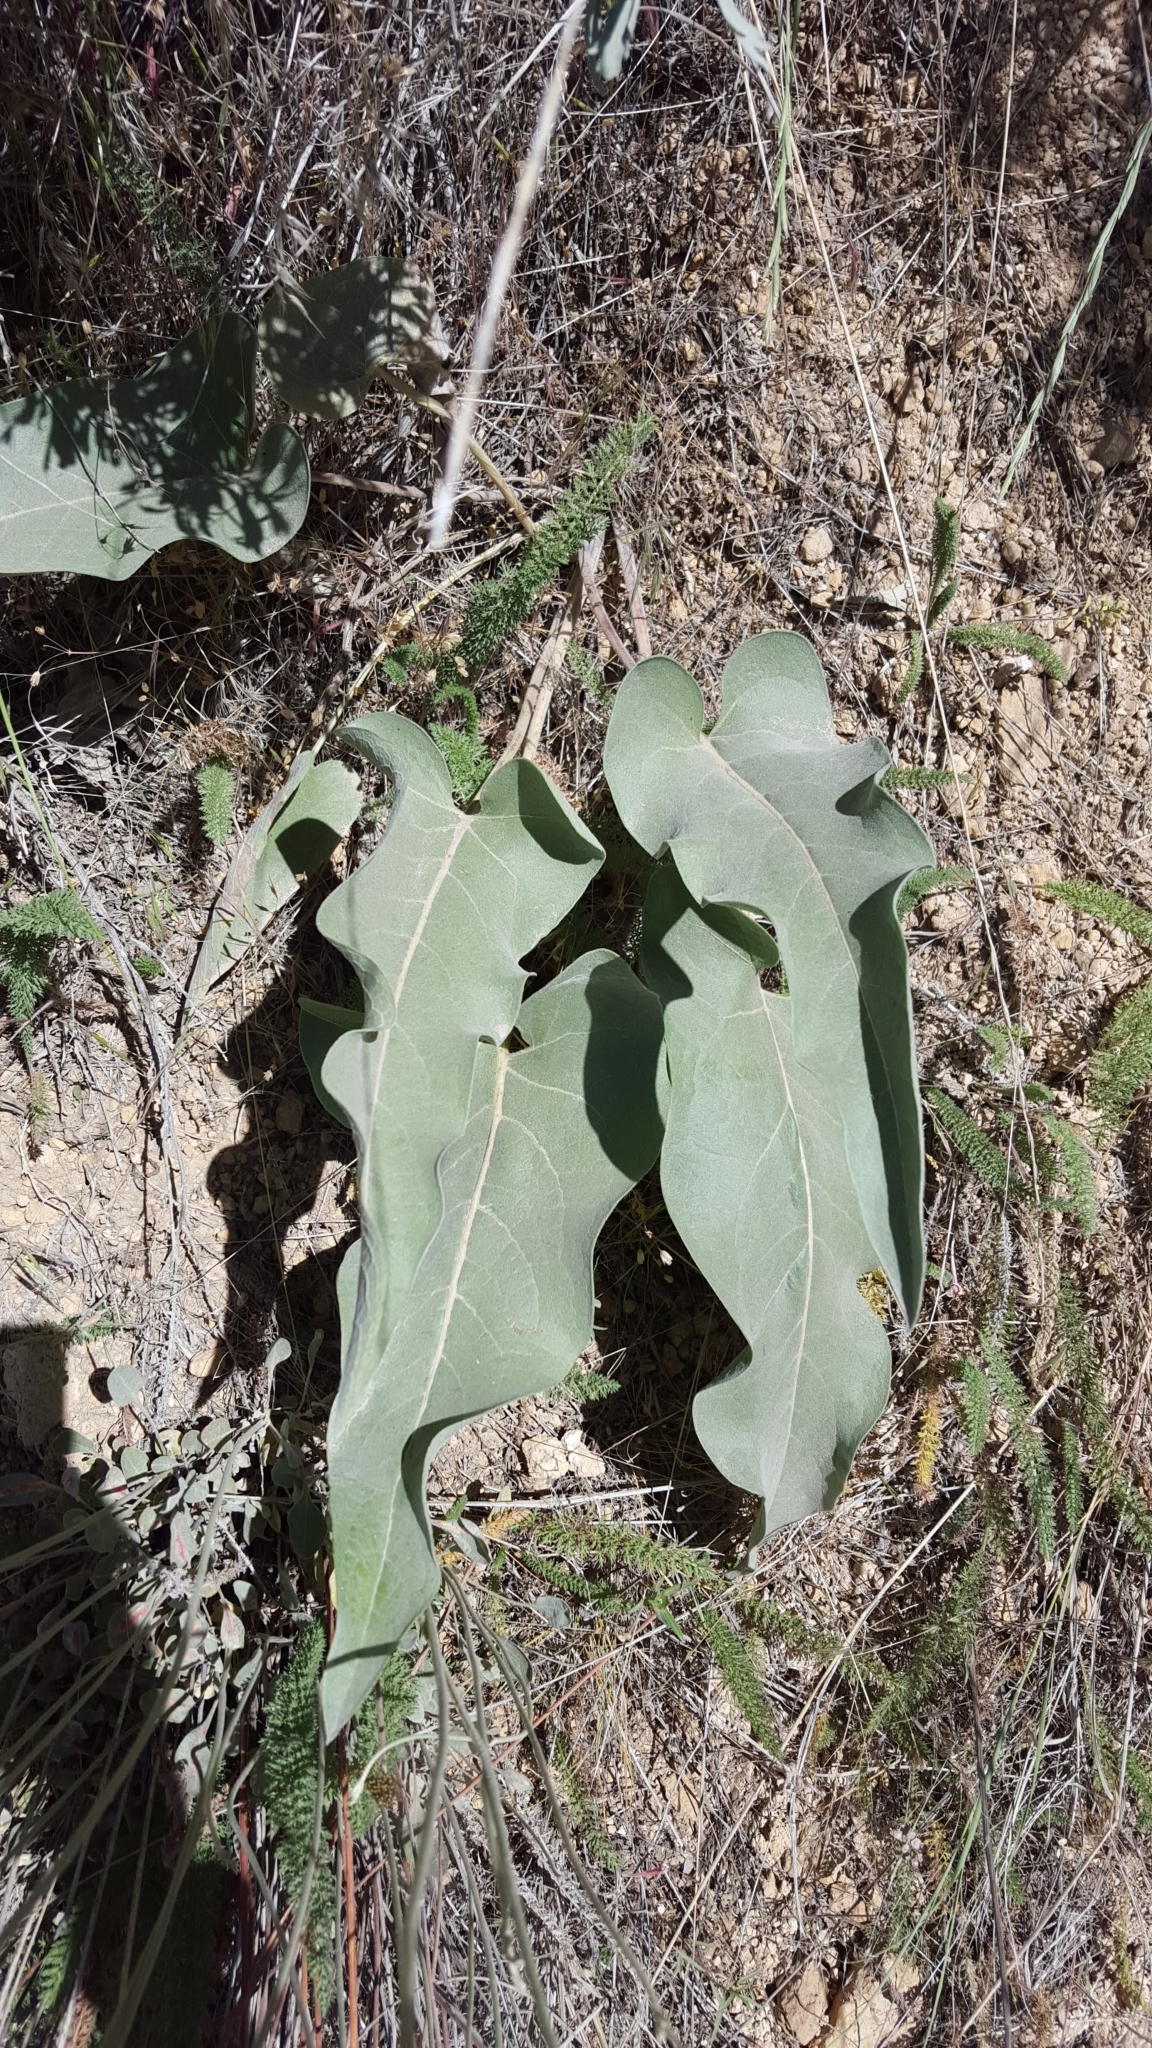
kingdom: Plantae
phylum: Tracheophyta
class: Magnoliopsida
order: Asterales
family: Asteraceae
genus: Wyethia
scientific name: Wyethia sagittata
